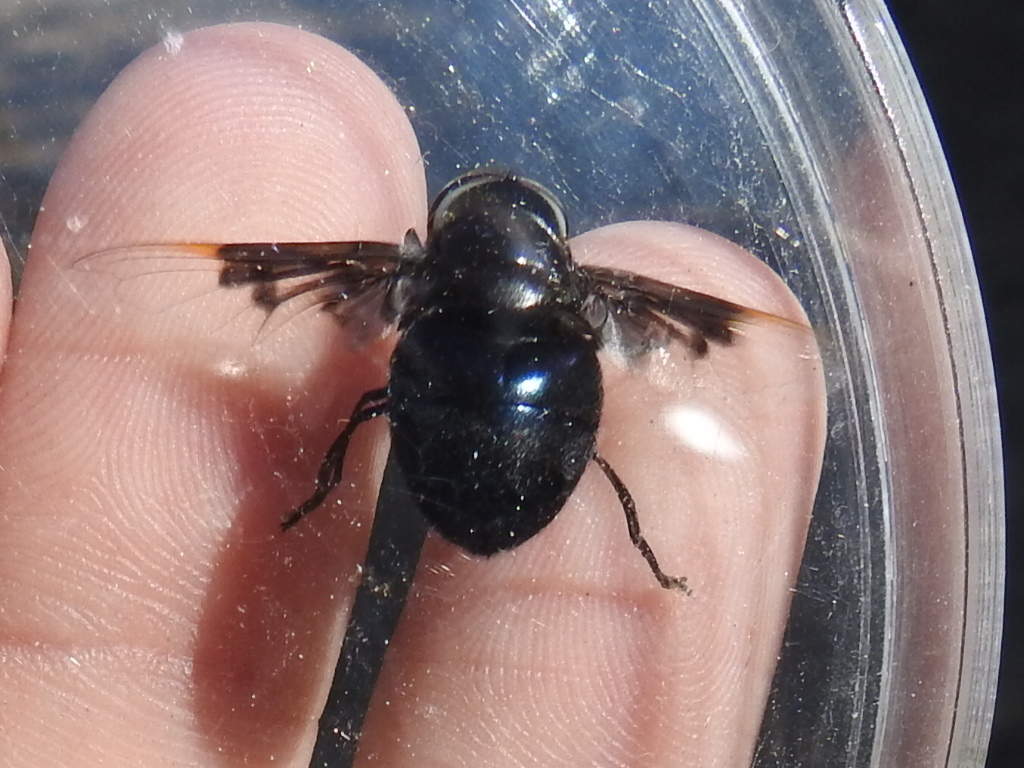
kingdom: Animalia
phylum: Arthropoda
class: Insecta
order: Diptera
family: Syrphidae
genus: Copestylum
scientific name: Copestylum mexicanum
